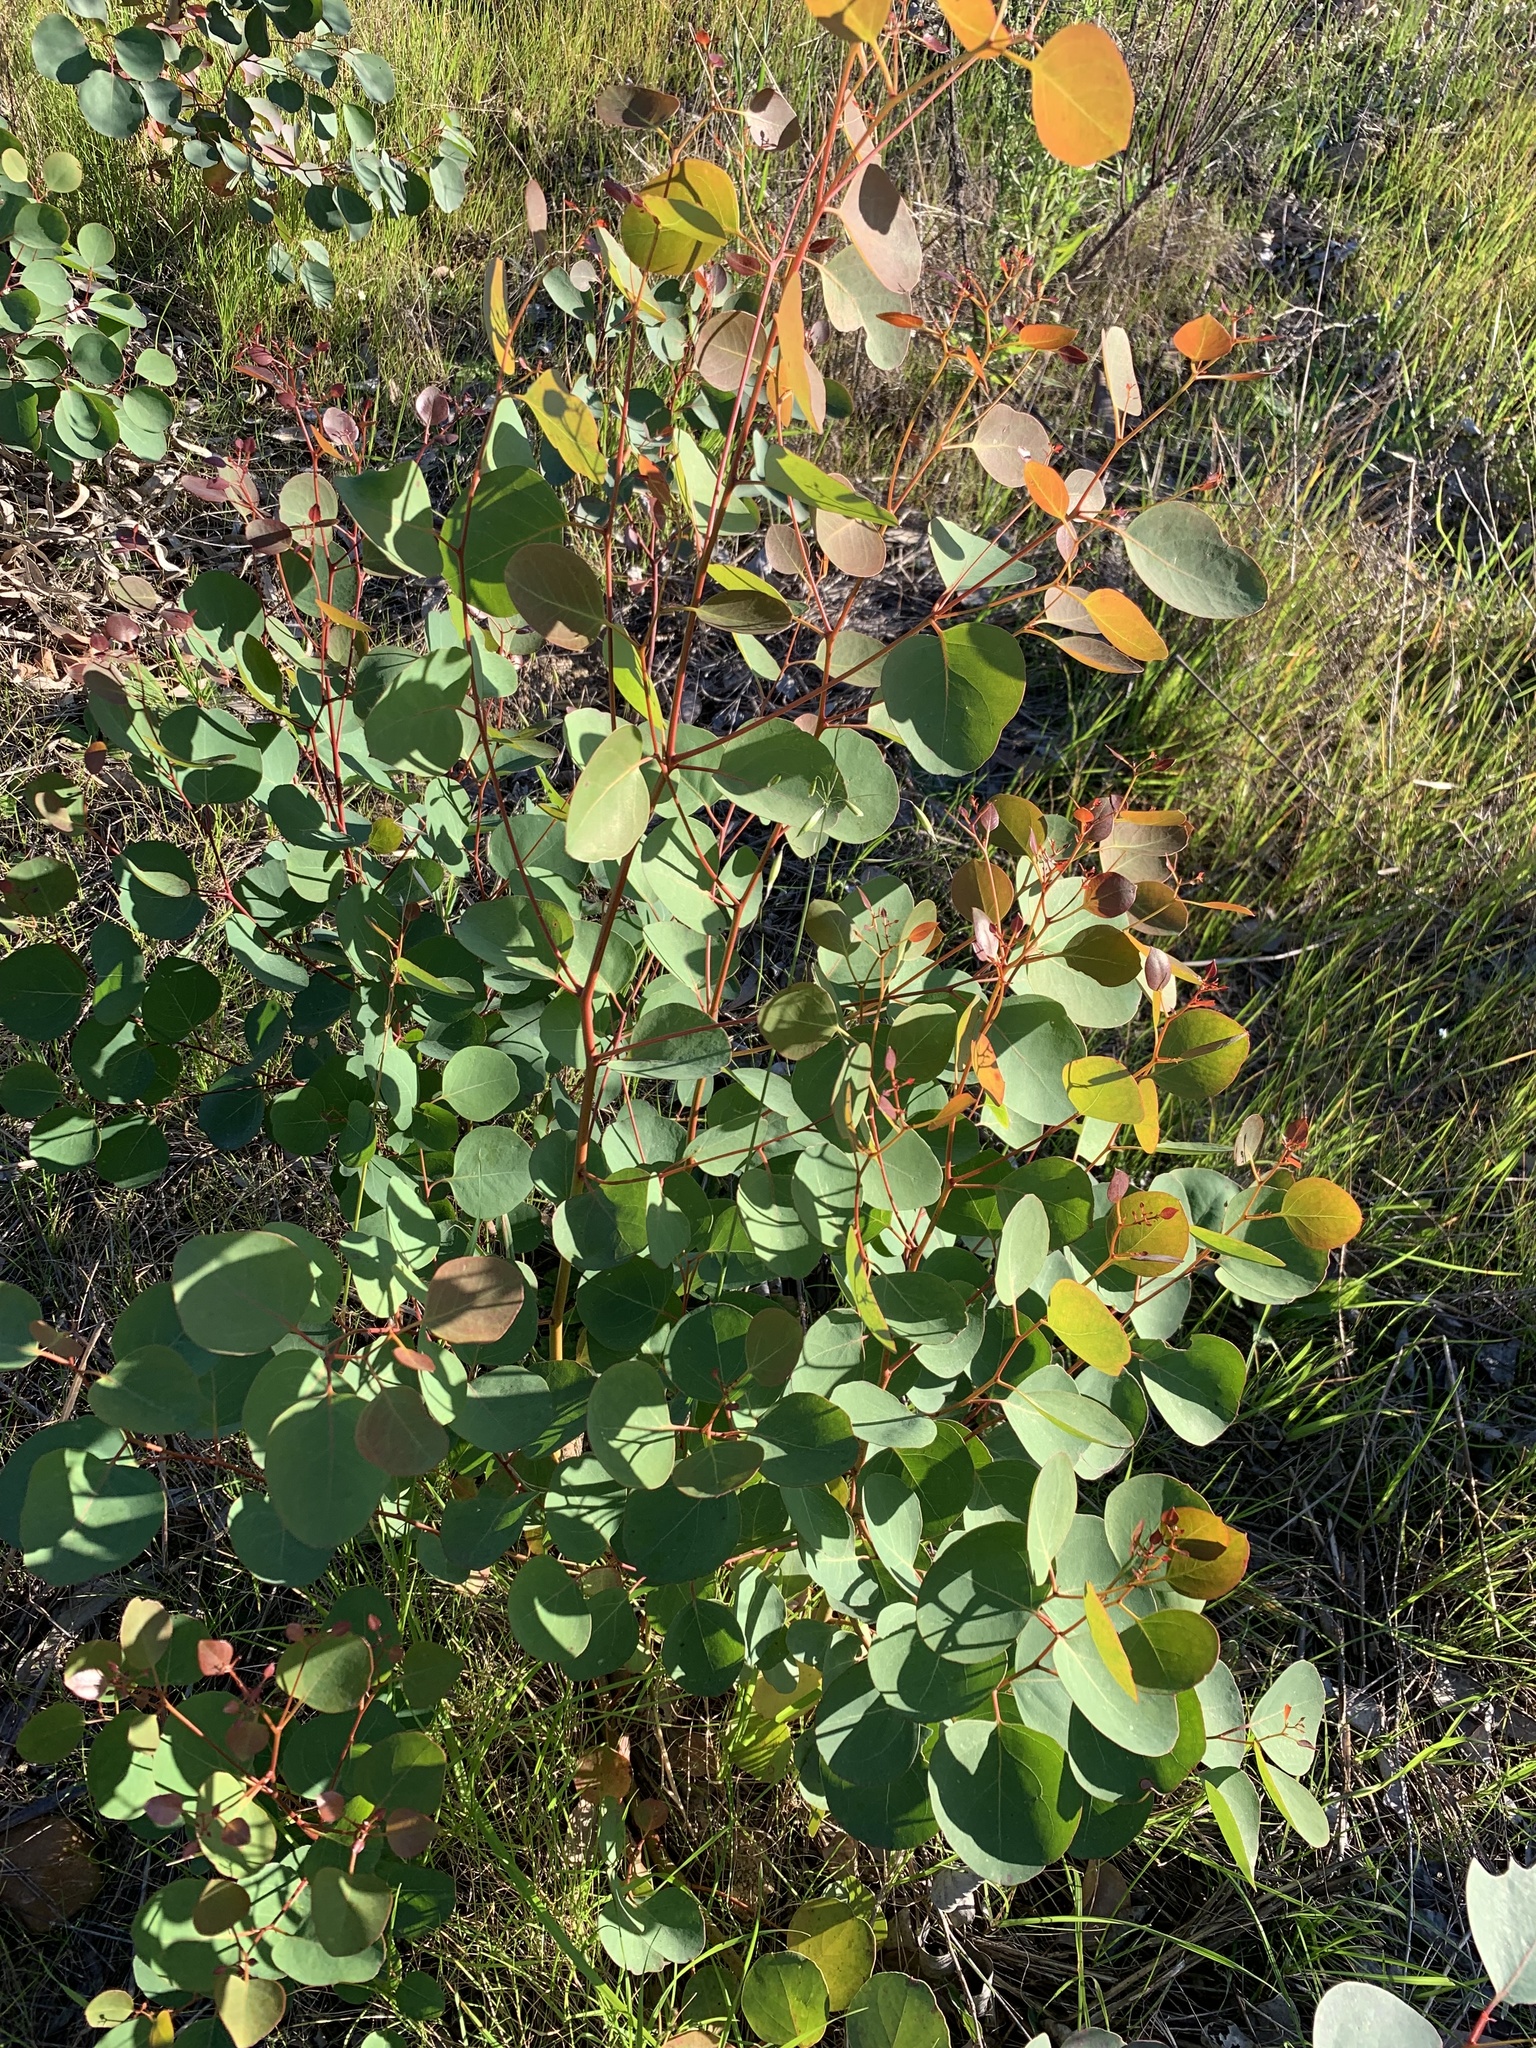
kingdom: Plantae
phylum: Tracheophyta
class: Magnoliopsida
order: Myrtales
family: Myrtaceae
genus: Eucalyptus
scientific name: Eucalyptus cladocalyx
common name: Sugargum
